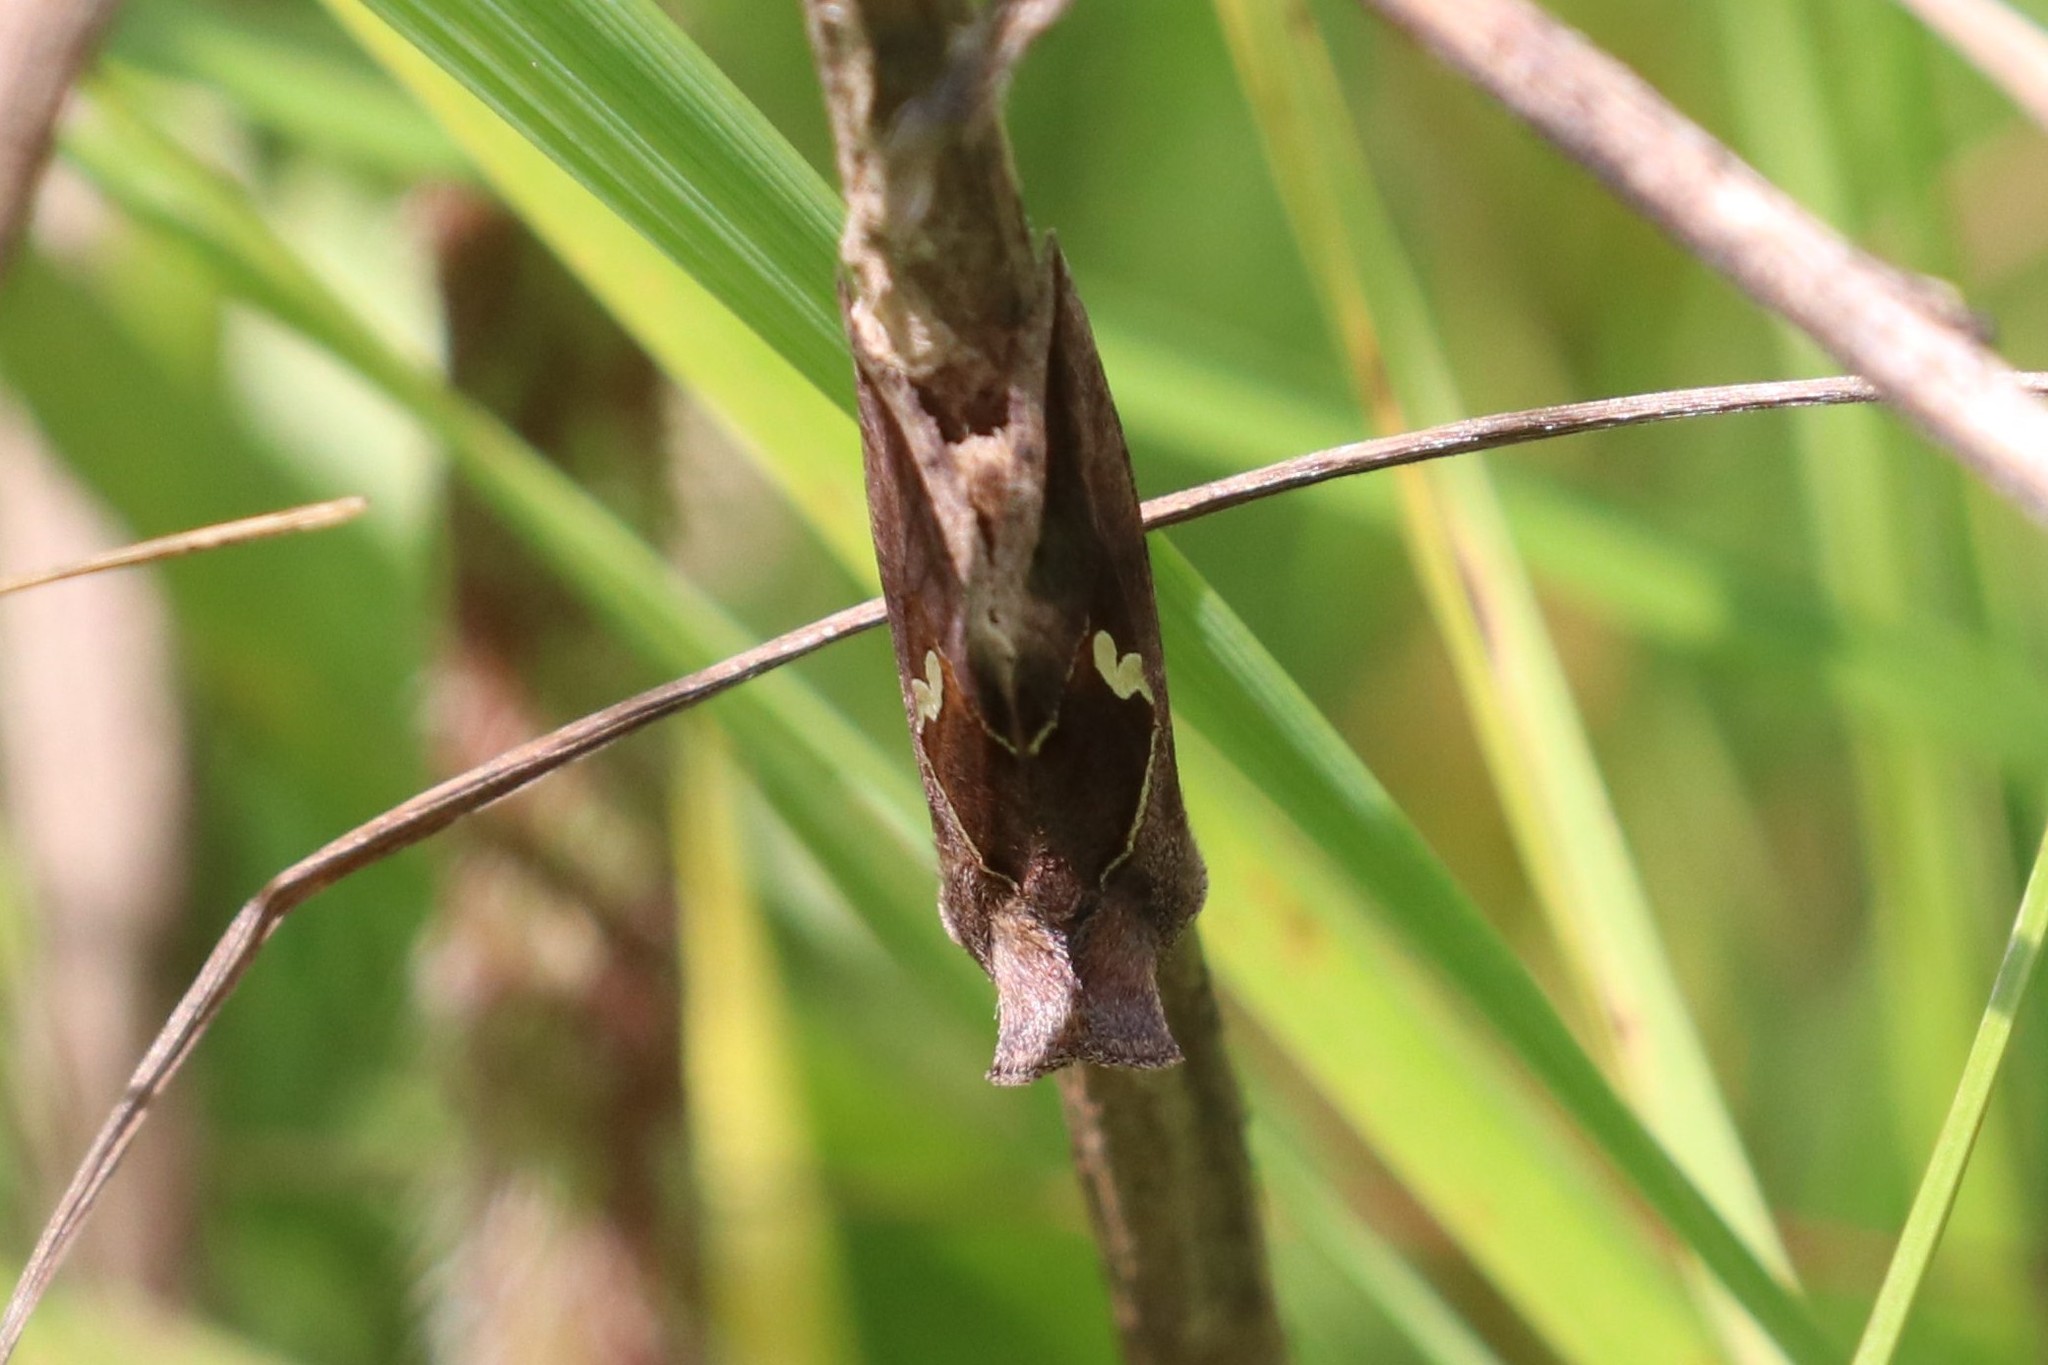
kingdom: Animalia
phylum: Arthropoda
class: Insecta
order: Lepidoptera
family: Noctuidae
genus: Macdunnoughia
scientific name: Macdunnoughia confusa
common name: Dewick's plusia
